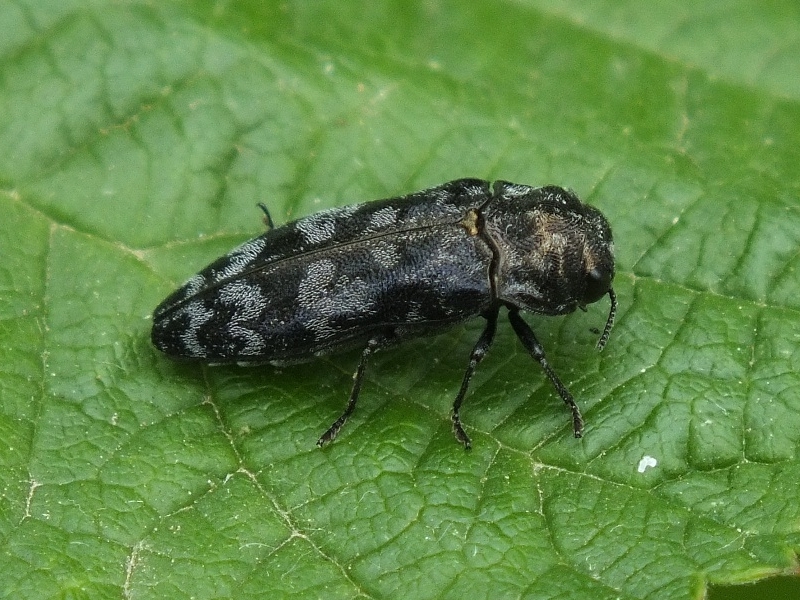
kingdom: Animalia
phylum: Arthropoda
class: Insecta
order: Coleoptera
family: Buprestidae
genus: Coraebus
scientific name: Coraebus rubi
